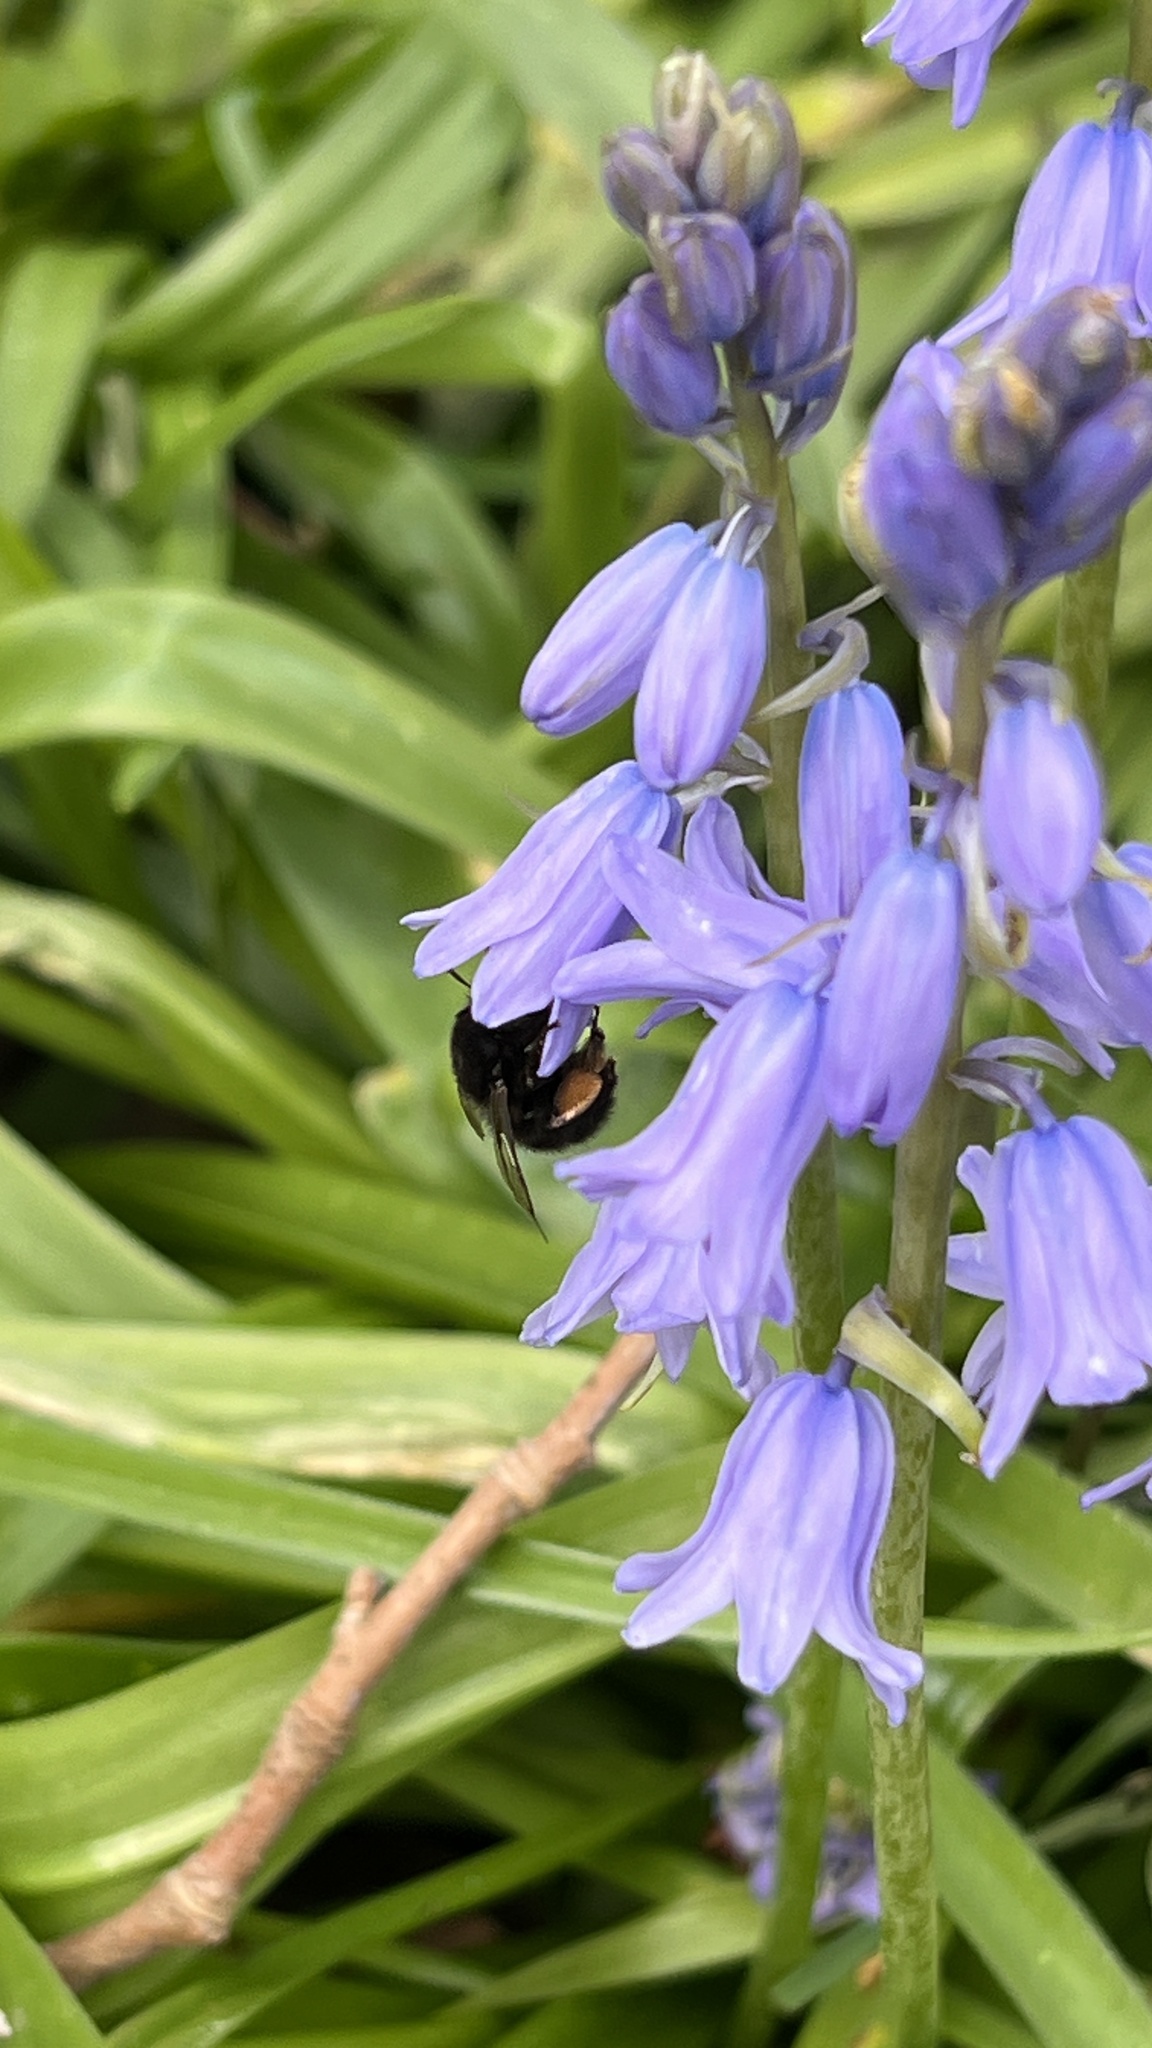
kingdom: Animalia
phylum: Arthropoda
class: Insecta
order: Hymenoptera
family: Apidae
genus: Anthophora
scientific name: Anthophora plumipes
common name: Hairy-footed flower bee
